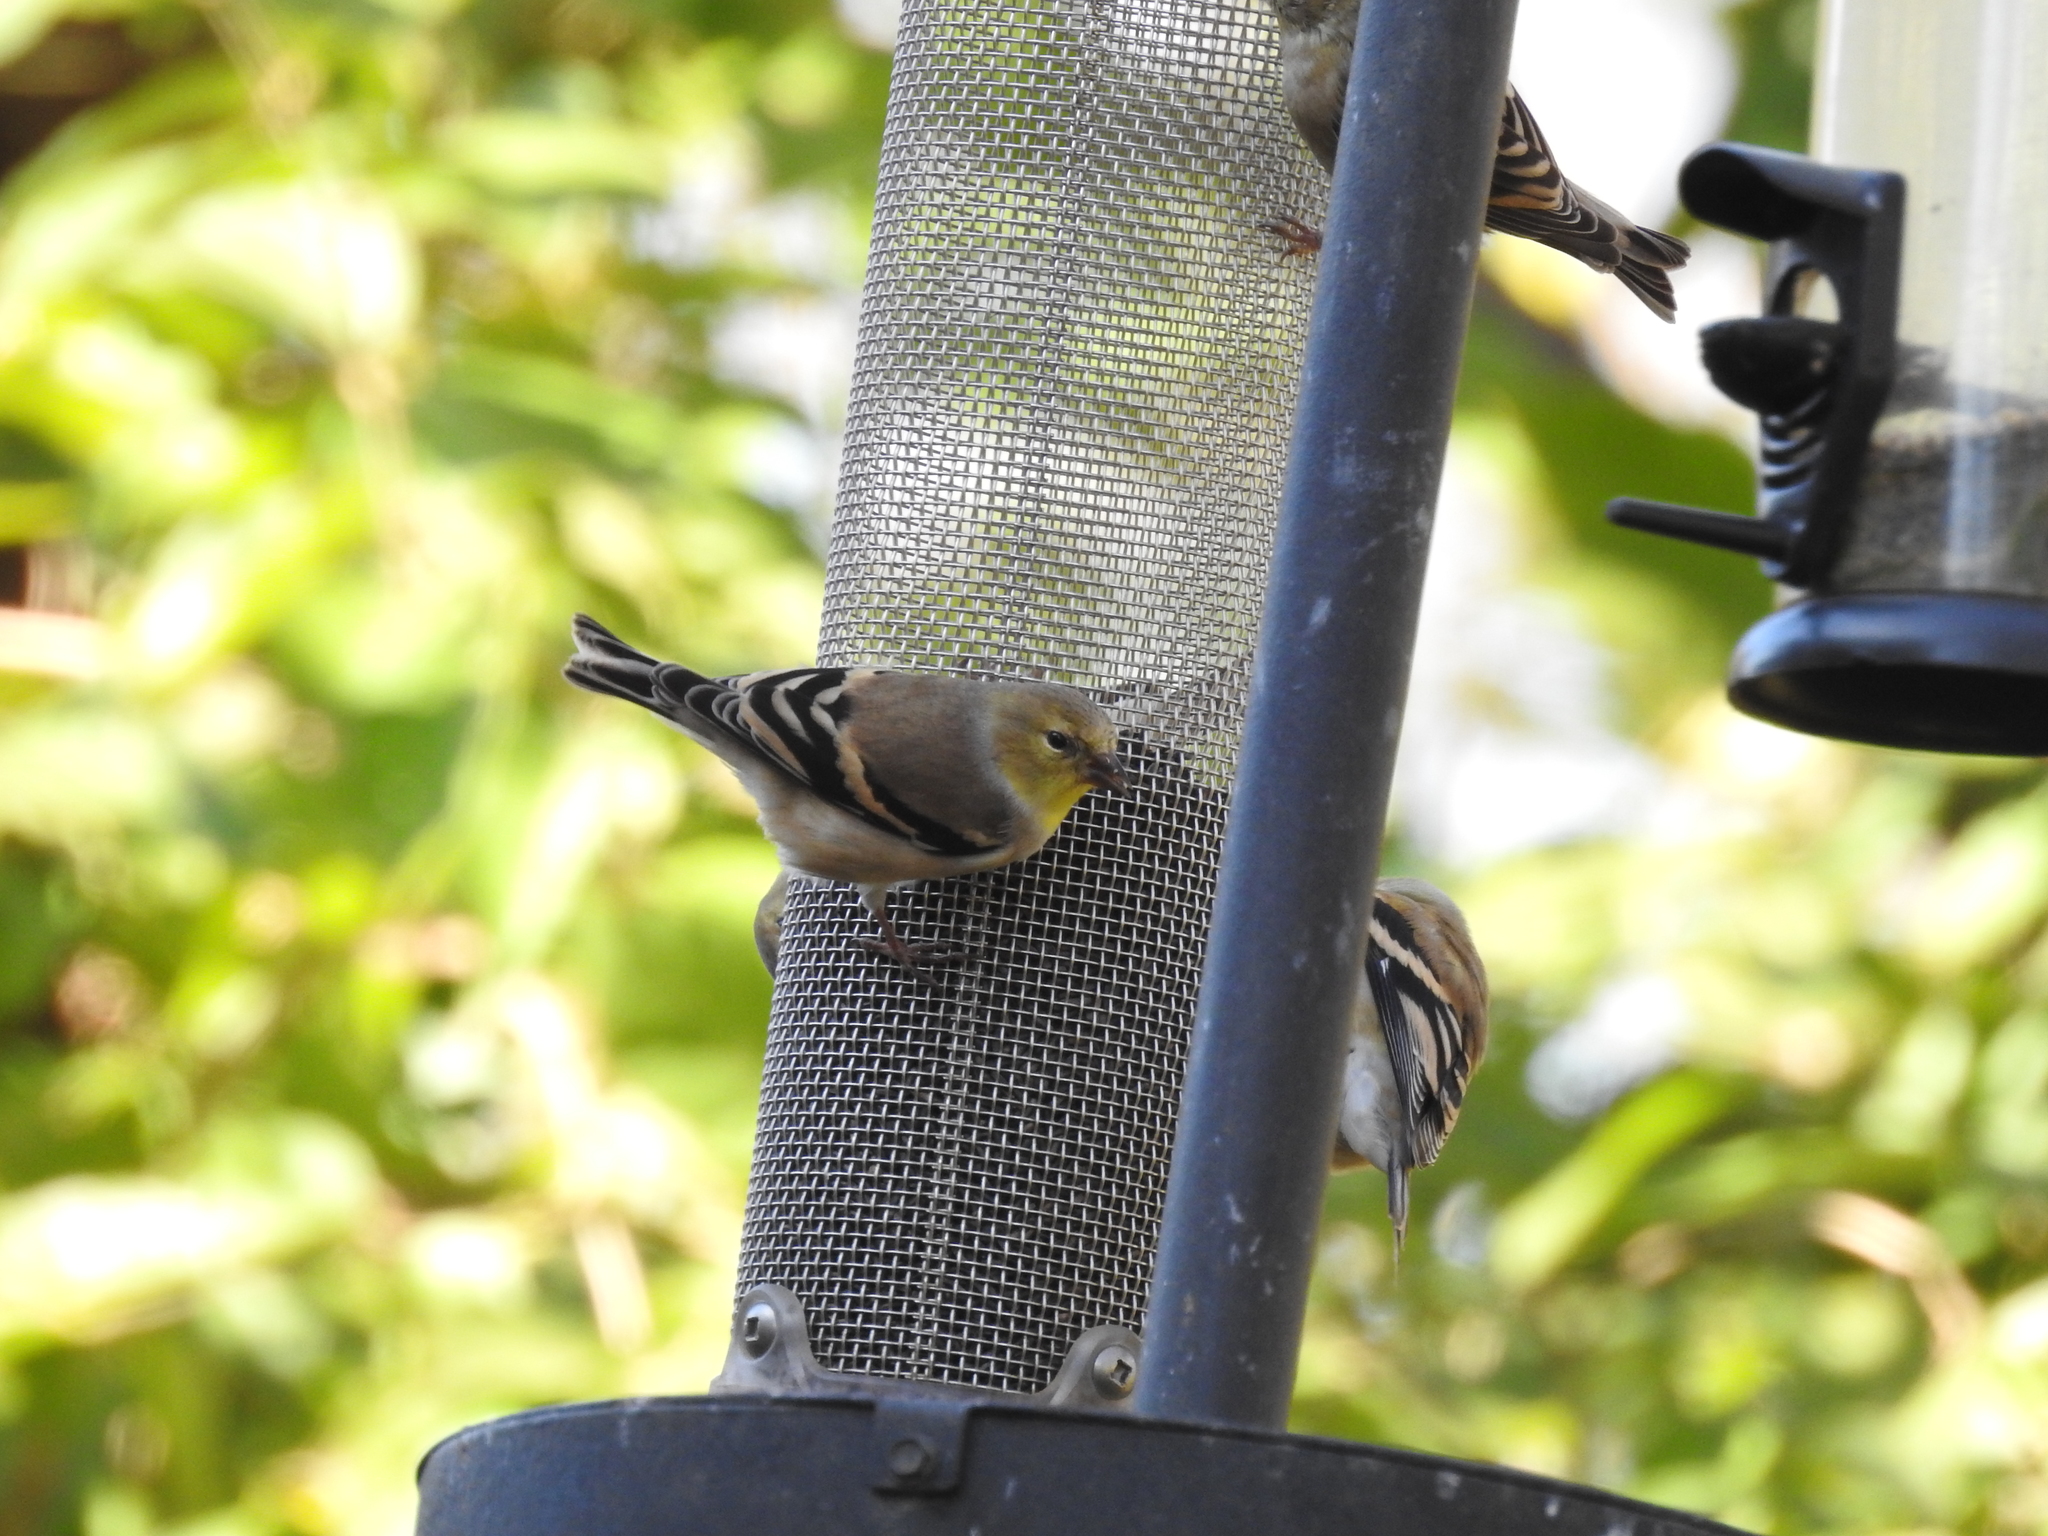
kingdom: Animalia
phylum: Chordata
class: Aves
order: Passeriformes
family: Paridae
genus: Poecile
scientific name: Poecile carolinensis
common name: Carolina chickadee
